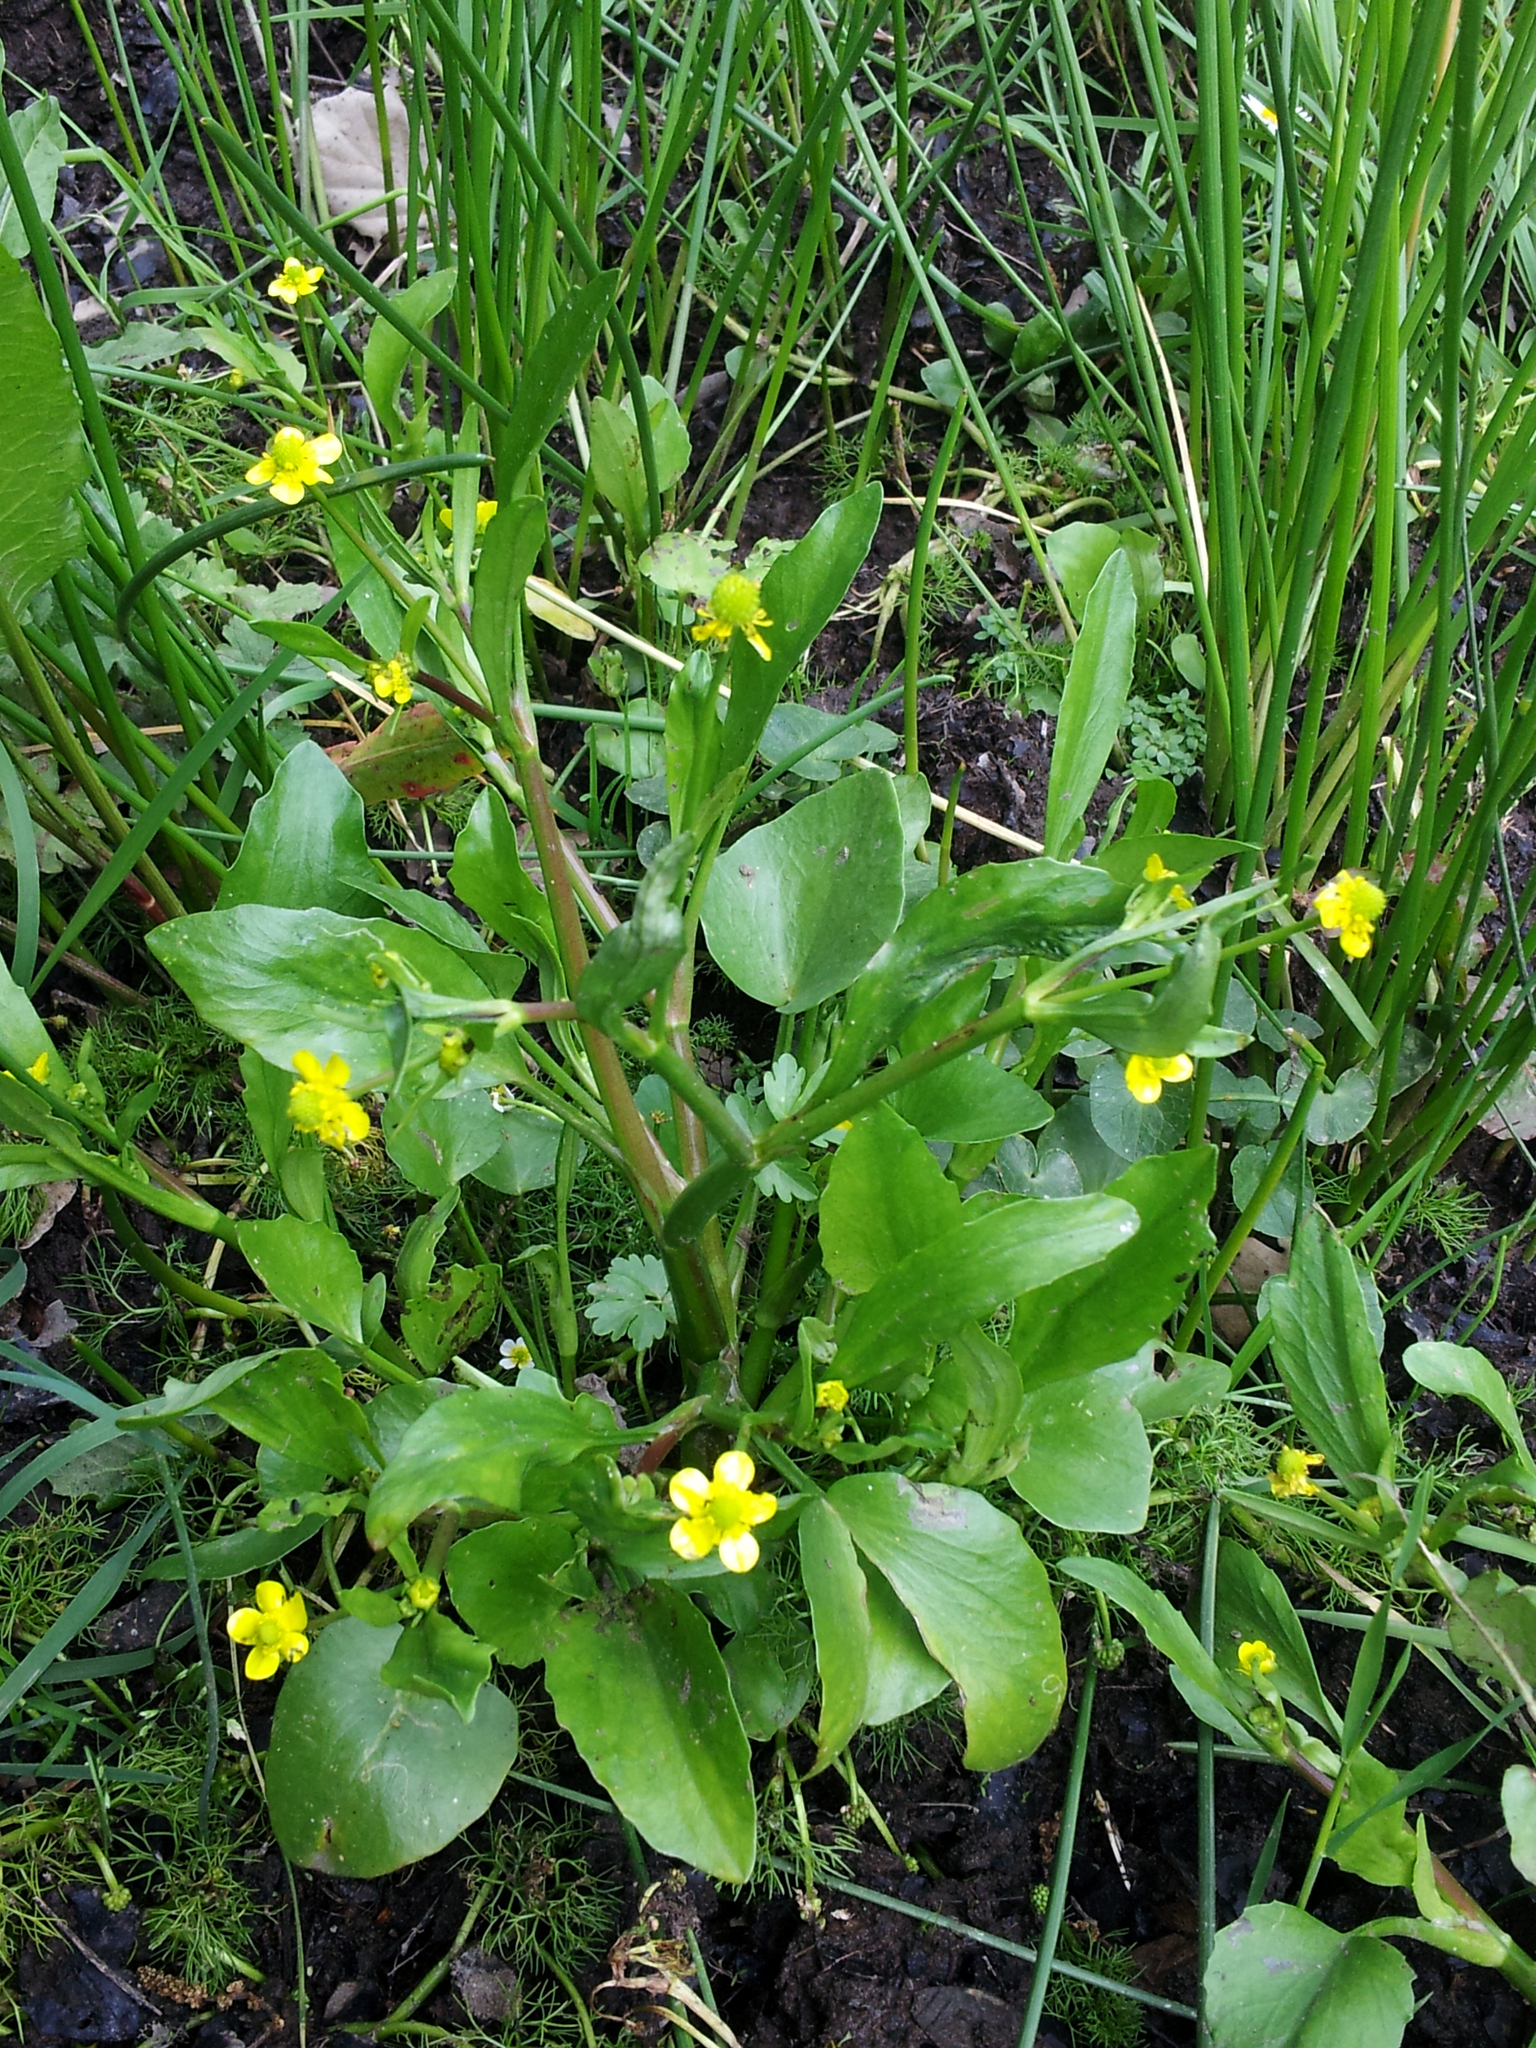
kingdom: Plantae
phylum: Tracheophyta
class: Magnoliopsida
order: Ranunculales
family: Ranunculaceae
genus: Ranunculus
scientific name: Ranunculus ophioglossifolius
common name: Adder's-tongue spearwort
